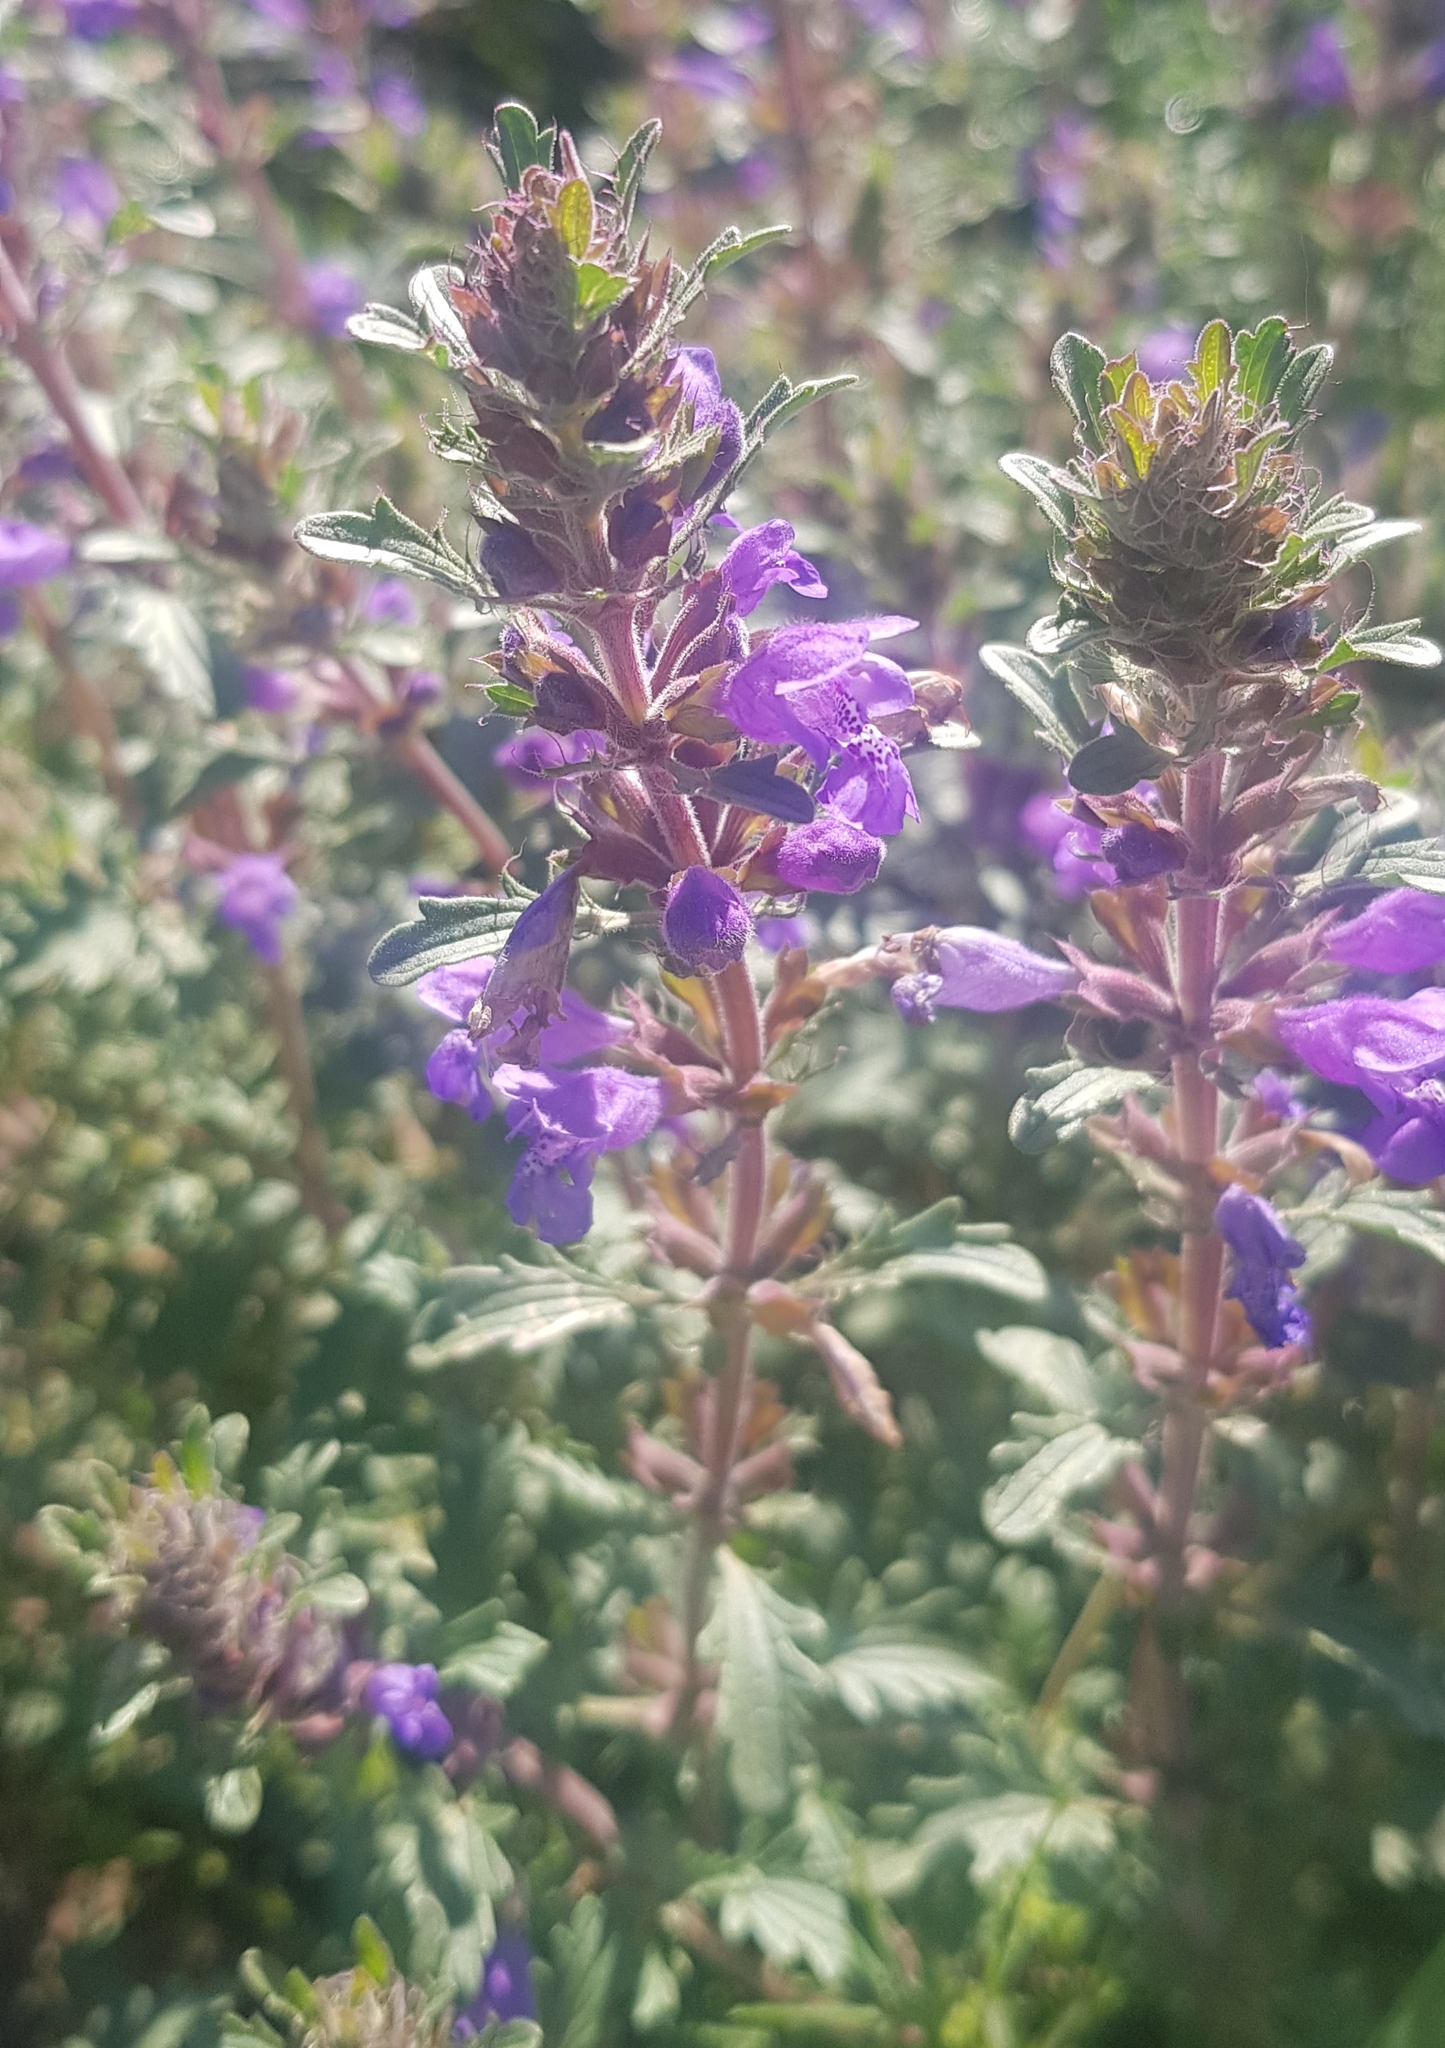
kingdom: Plantae
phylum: Tracheophyta
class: Magnoliopsida
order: Lamiales
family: Lamiaceae
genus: Dracocephalum
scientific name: Dracocephalum foetidum
